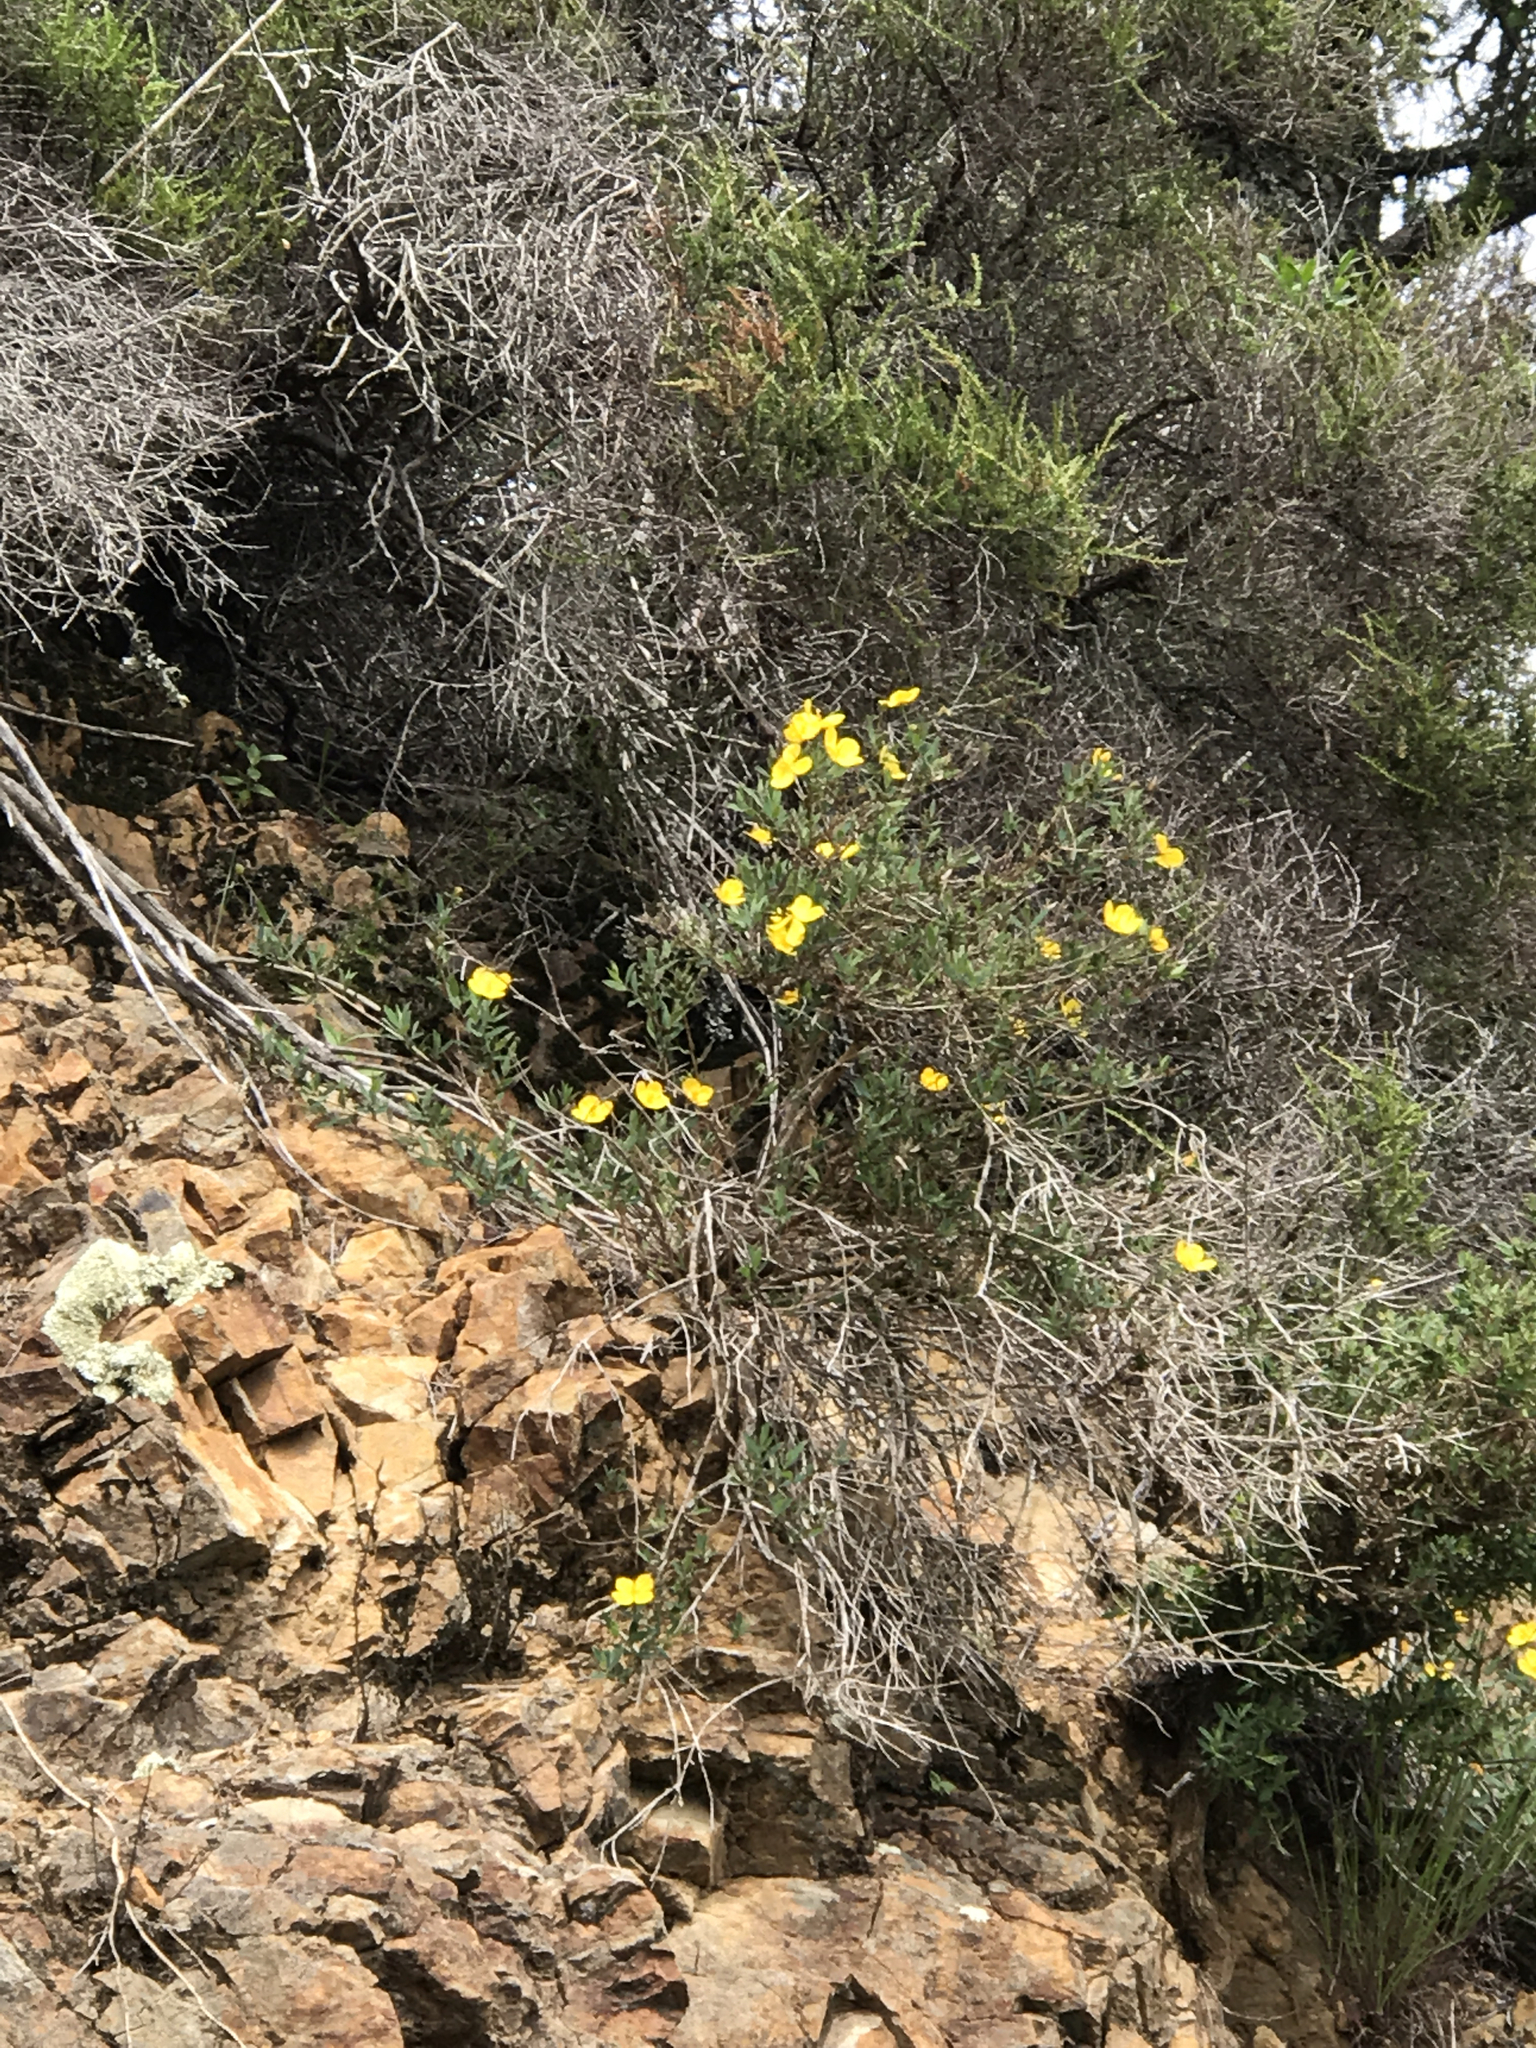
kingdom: Plantae
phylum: Tracheophyta
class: Magnoliopsida
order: Ranunculales
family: Papaveraceae
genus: Dendromecon
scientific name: Dendromecon rigida
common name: Tree poppy
